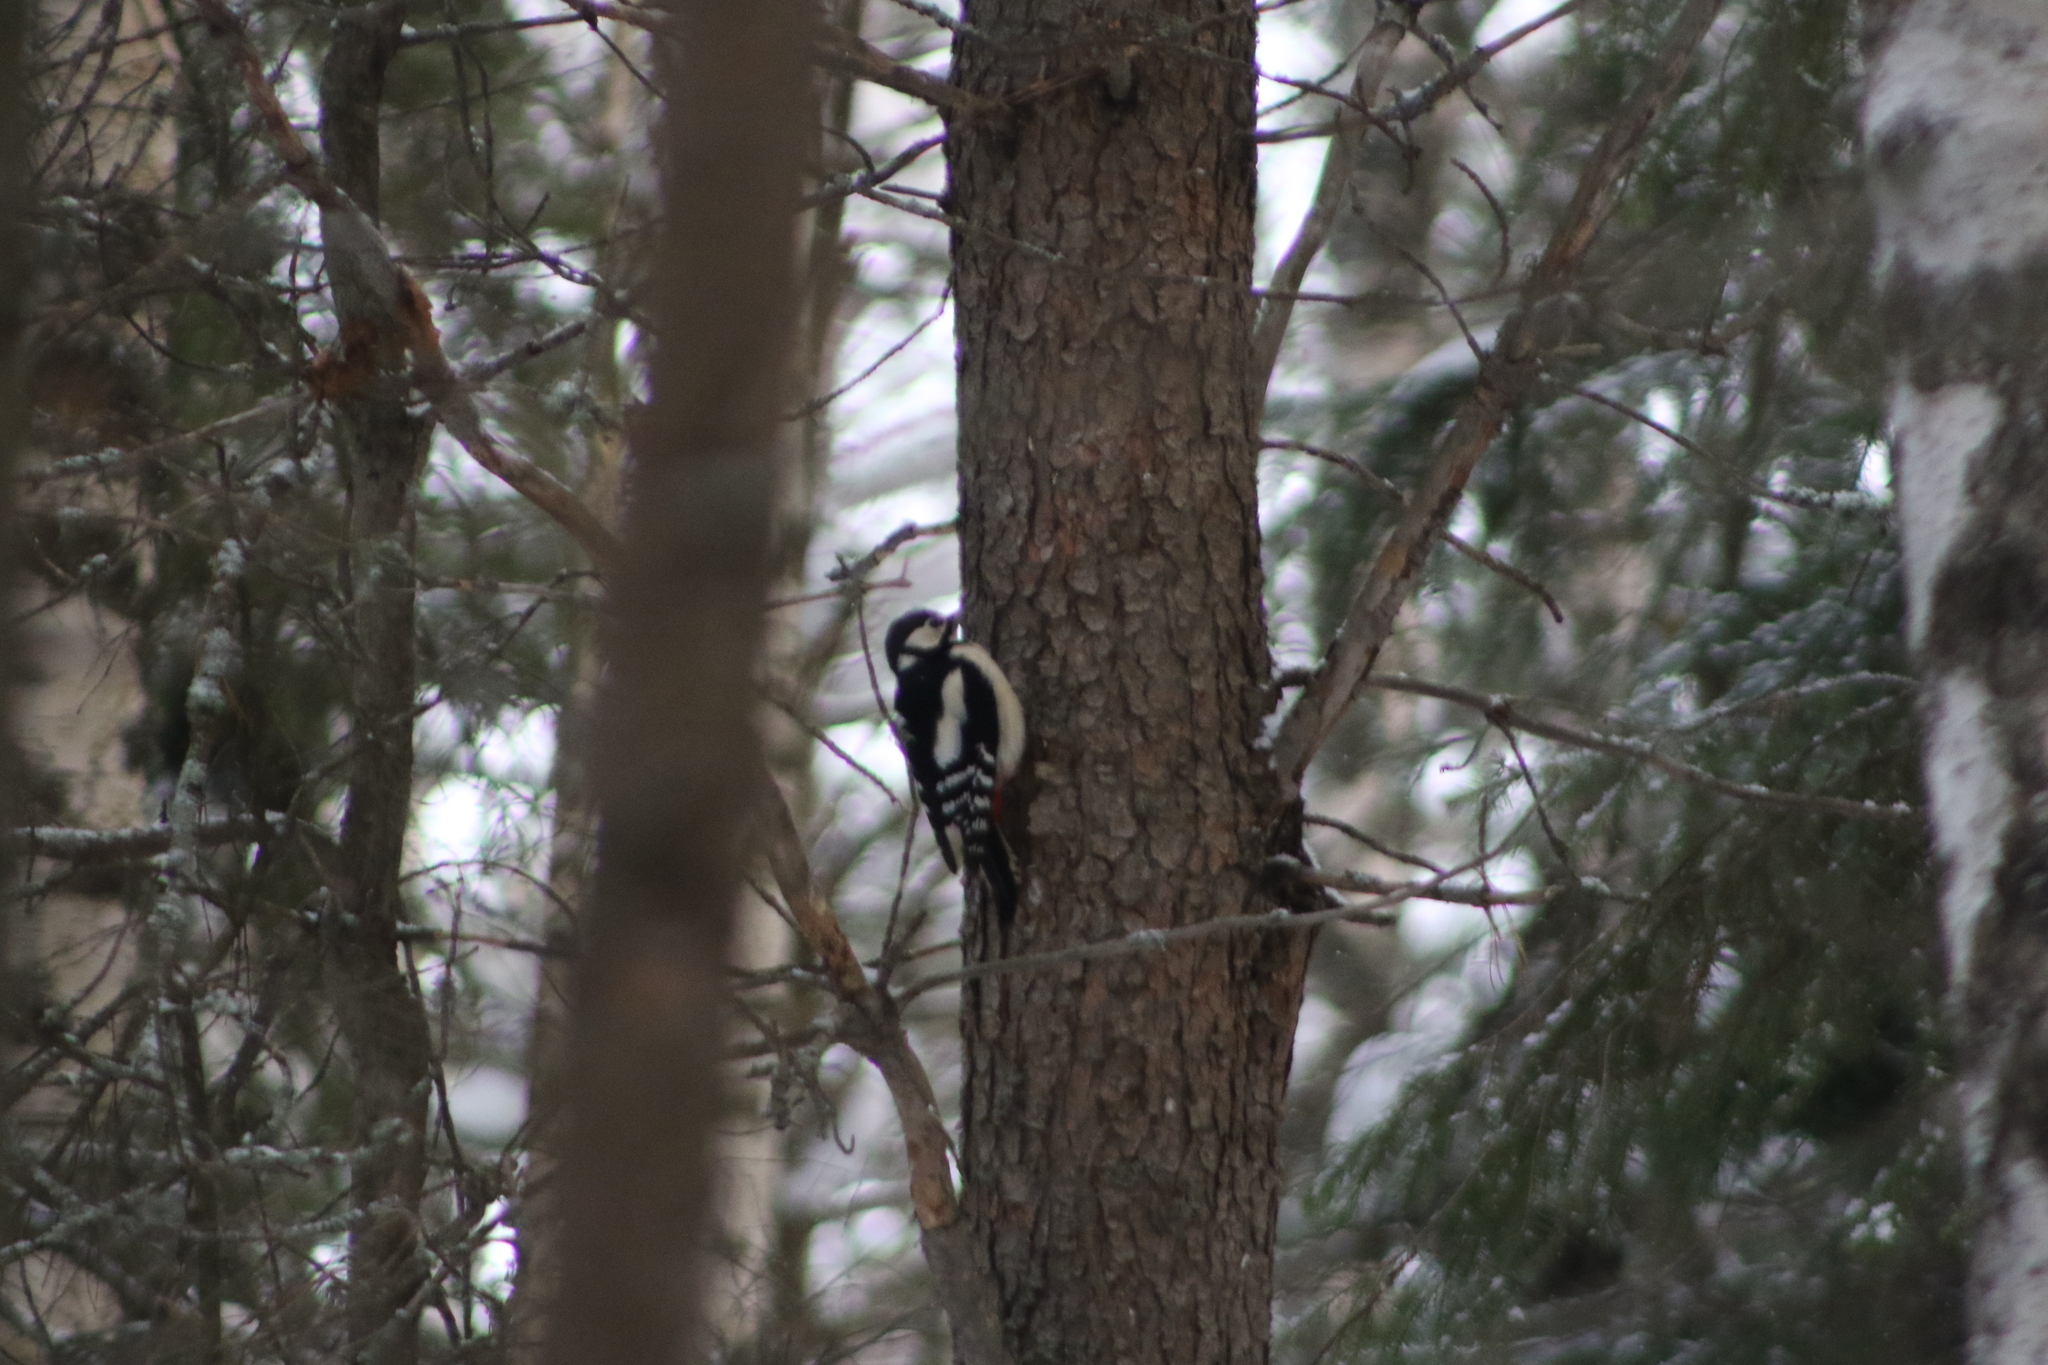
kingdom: Animalia
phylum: Chordata
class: Aves
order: Piciformes
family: Picidae
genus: Dendrocopos
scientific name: Dendrocopos major
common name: Great spotted woodpecker
